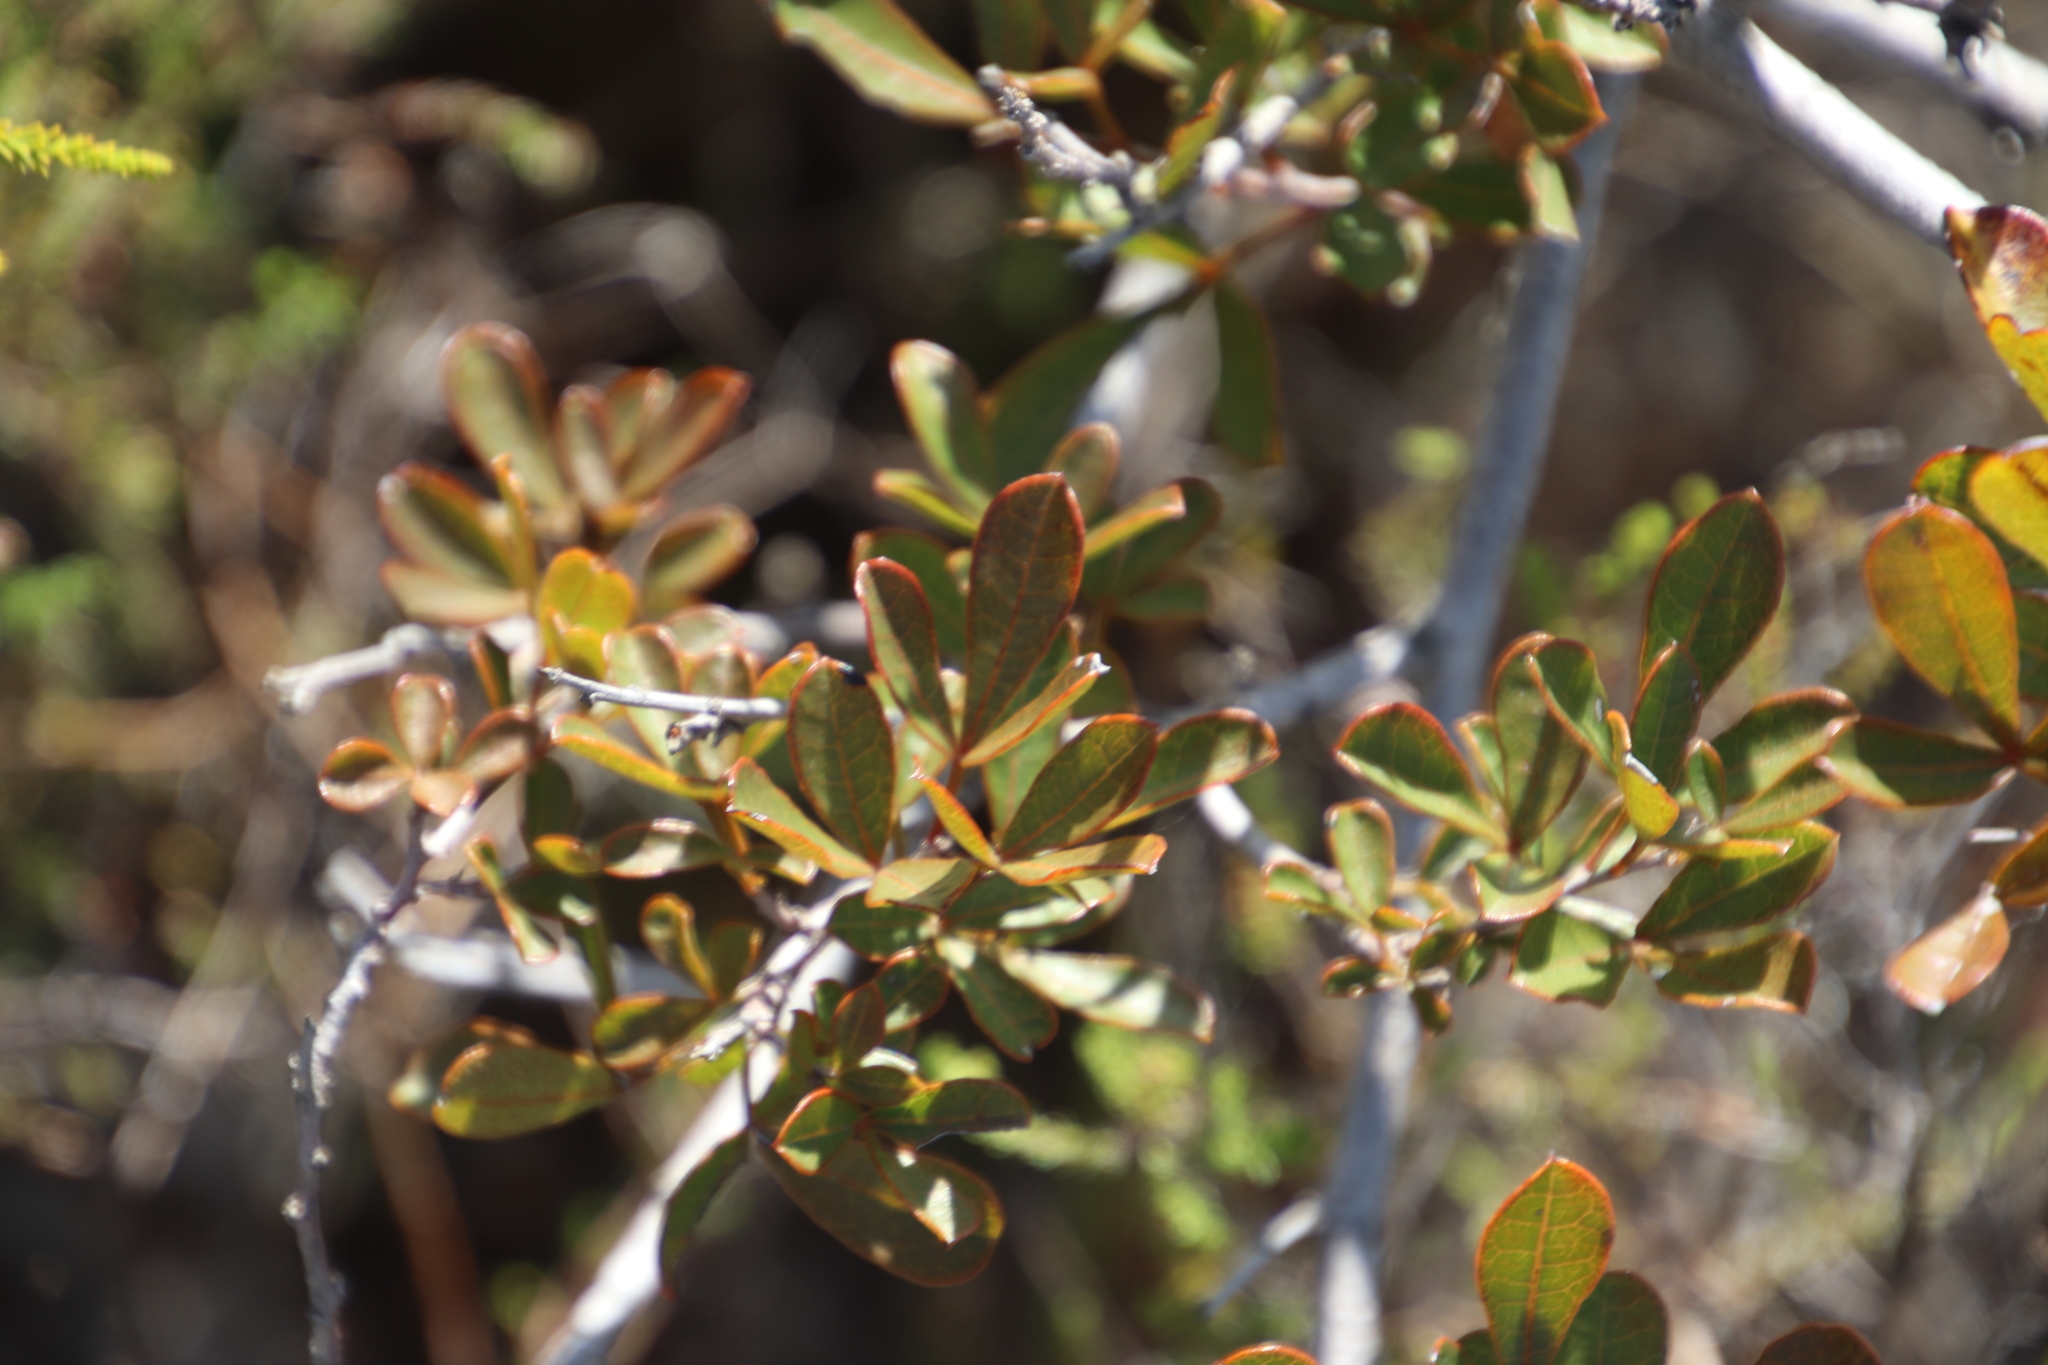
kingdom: Plantae
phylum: Tracheophyta
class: Magnoliopsida
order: Sapindales
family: Anacardiaceae
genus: Searsia
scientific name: Searsia laevigata
